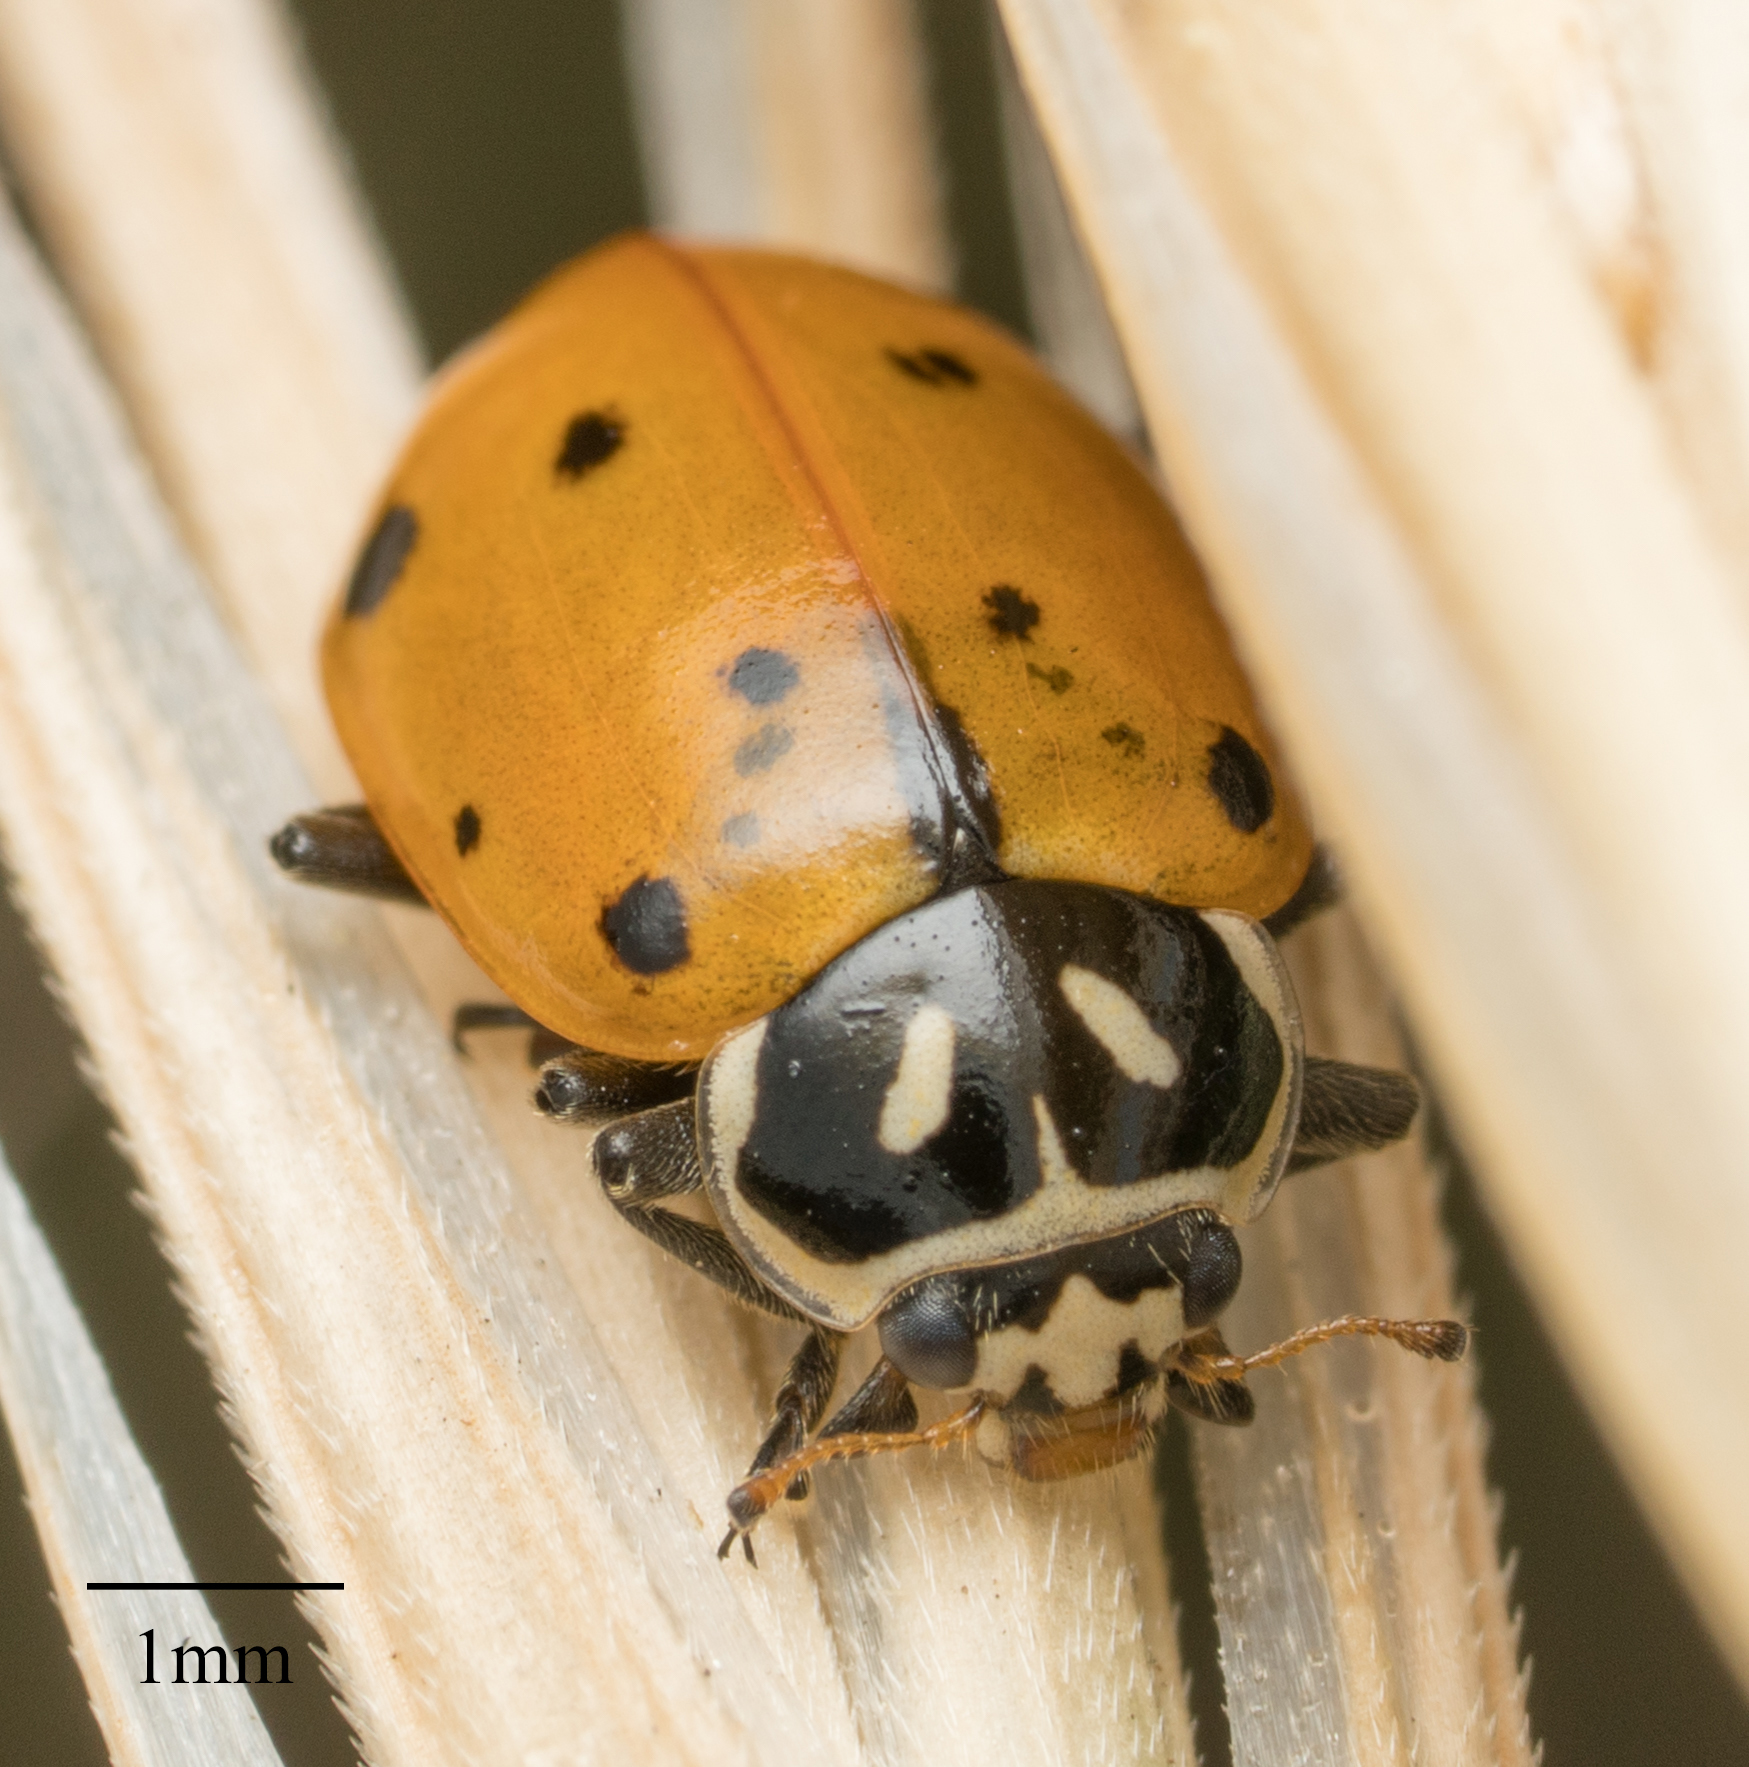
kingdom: Animalia
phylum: Arthropoda
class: Insecta
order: Coleoptera
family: Coccinellidae
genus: Hippodamia
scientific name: Hippodamia convergens
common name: Convergent lady beetle
